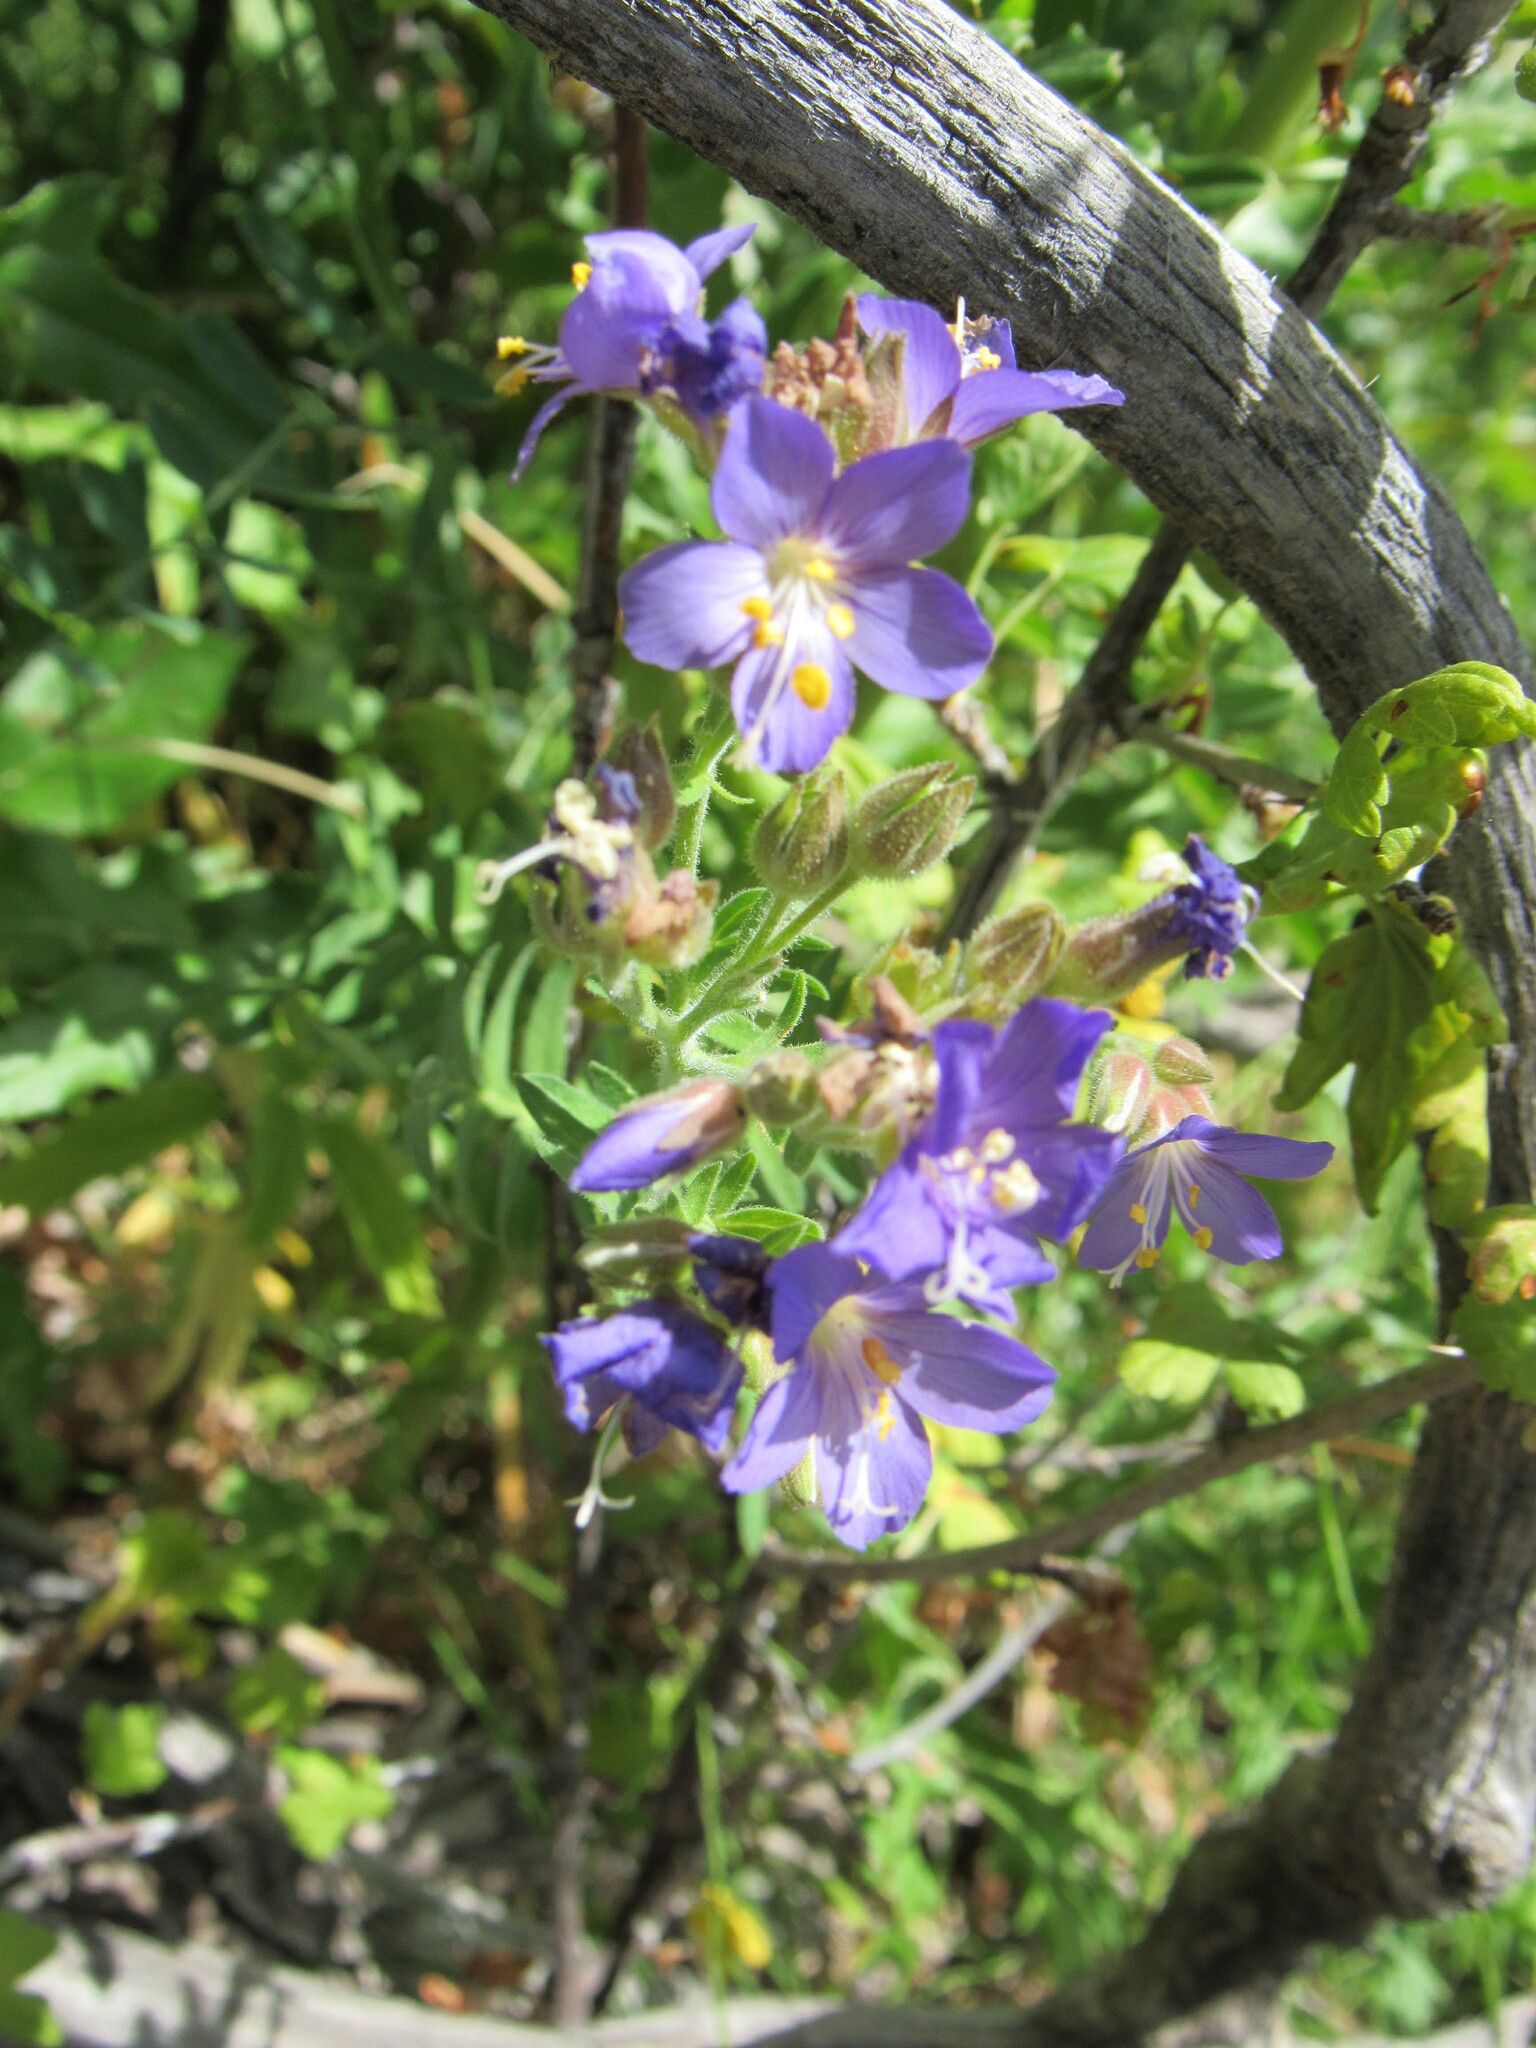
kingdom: Plantae
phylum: Tracheophyta
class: Magnoliopsida
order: Ericales
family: Polemoniaceae
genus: Polemonium
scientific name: Polemonium foliosissimum
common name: Leafy jacob's-ladder
